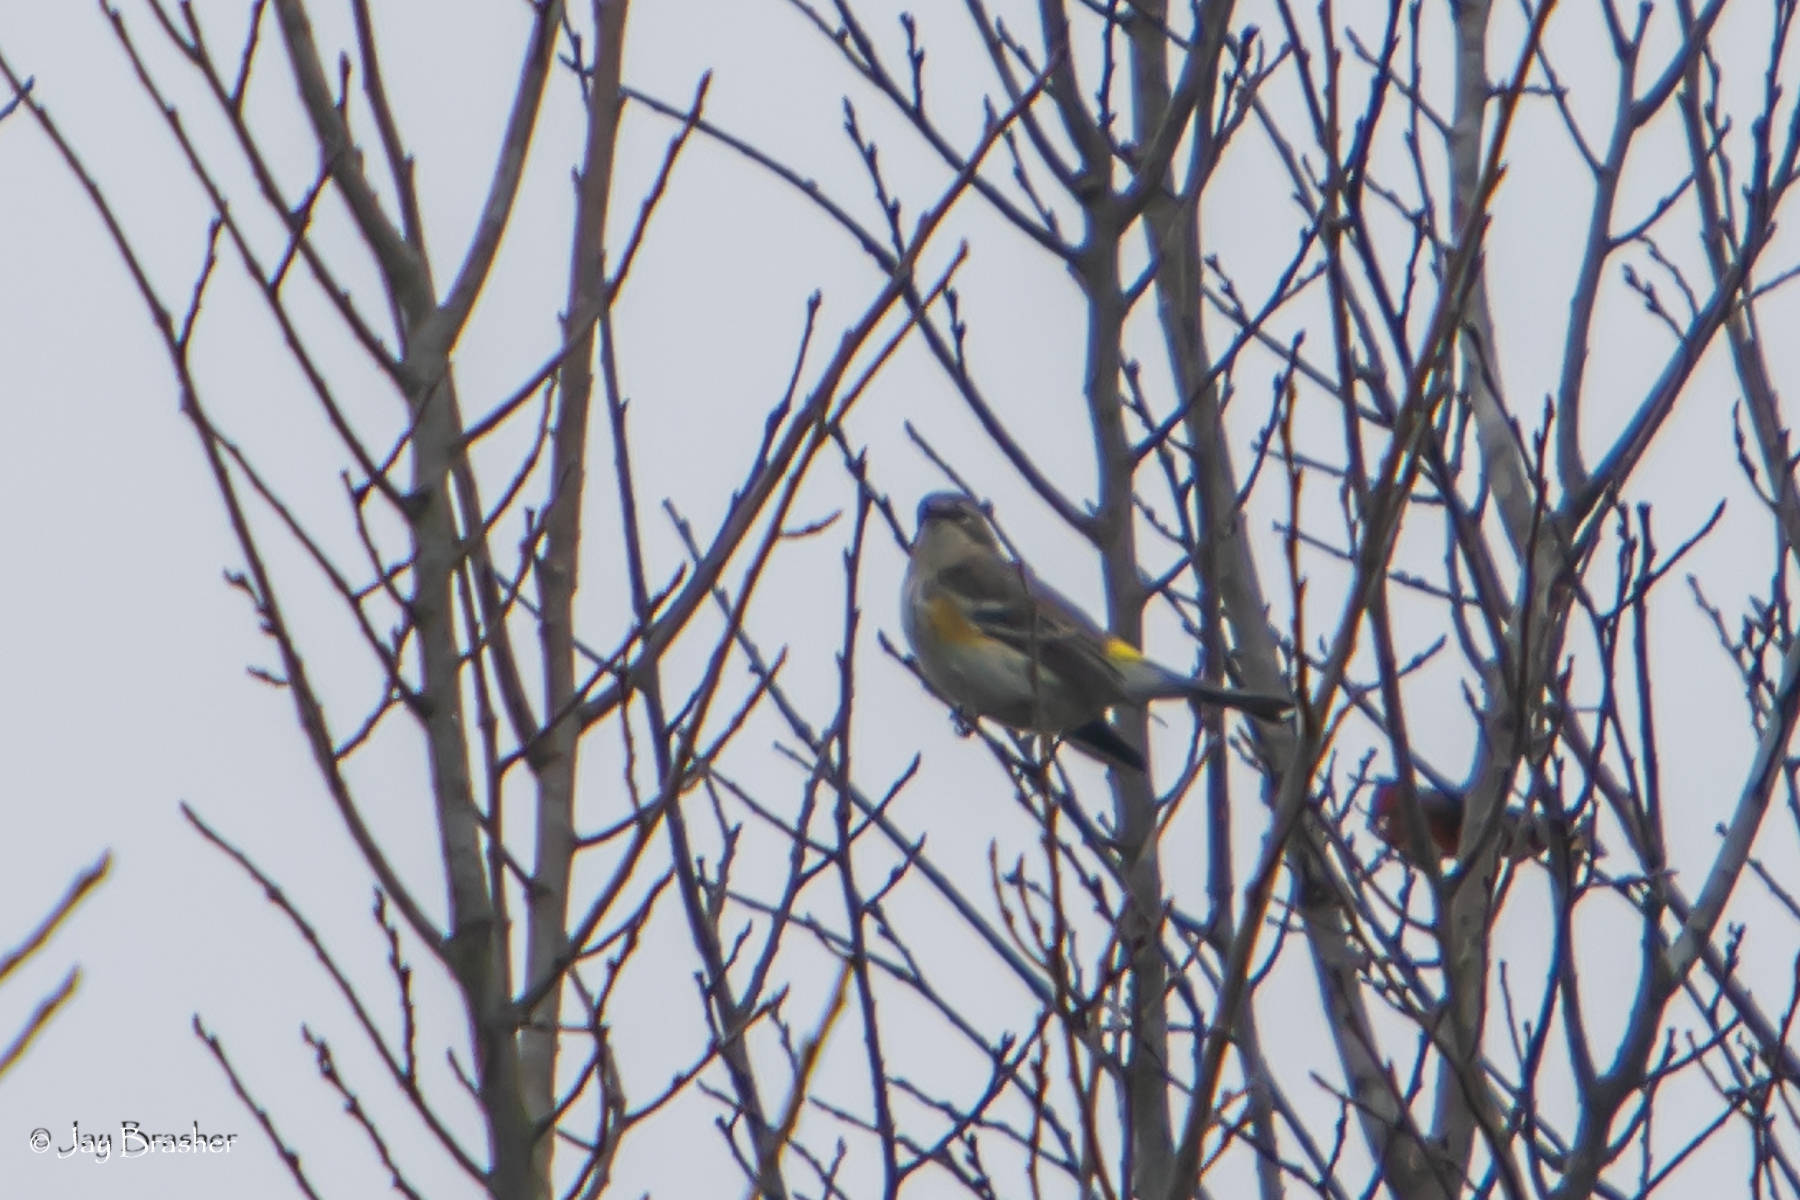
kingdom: Animalia
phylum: Chordata
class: Aves
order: Passeriformes
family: Parulidae
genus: Setophaga
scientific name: Setophaga coronata
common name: Myrtle warbler
